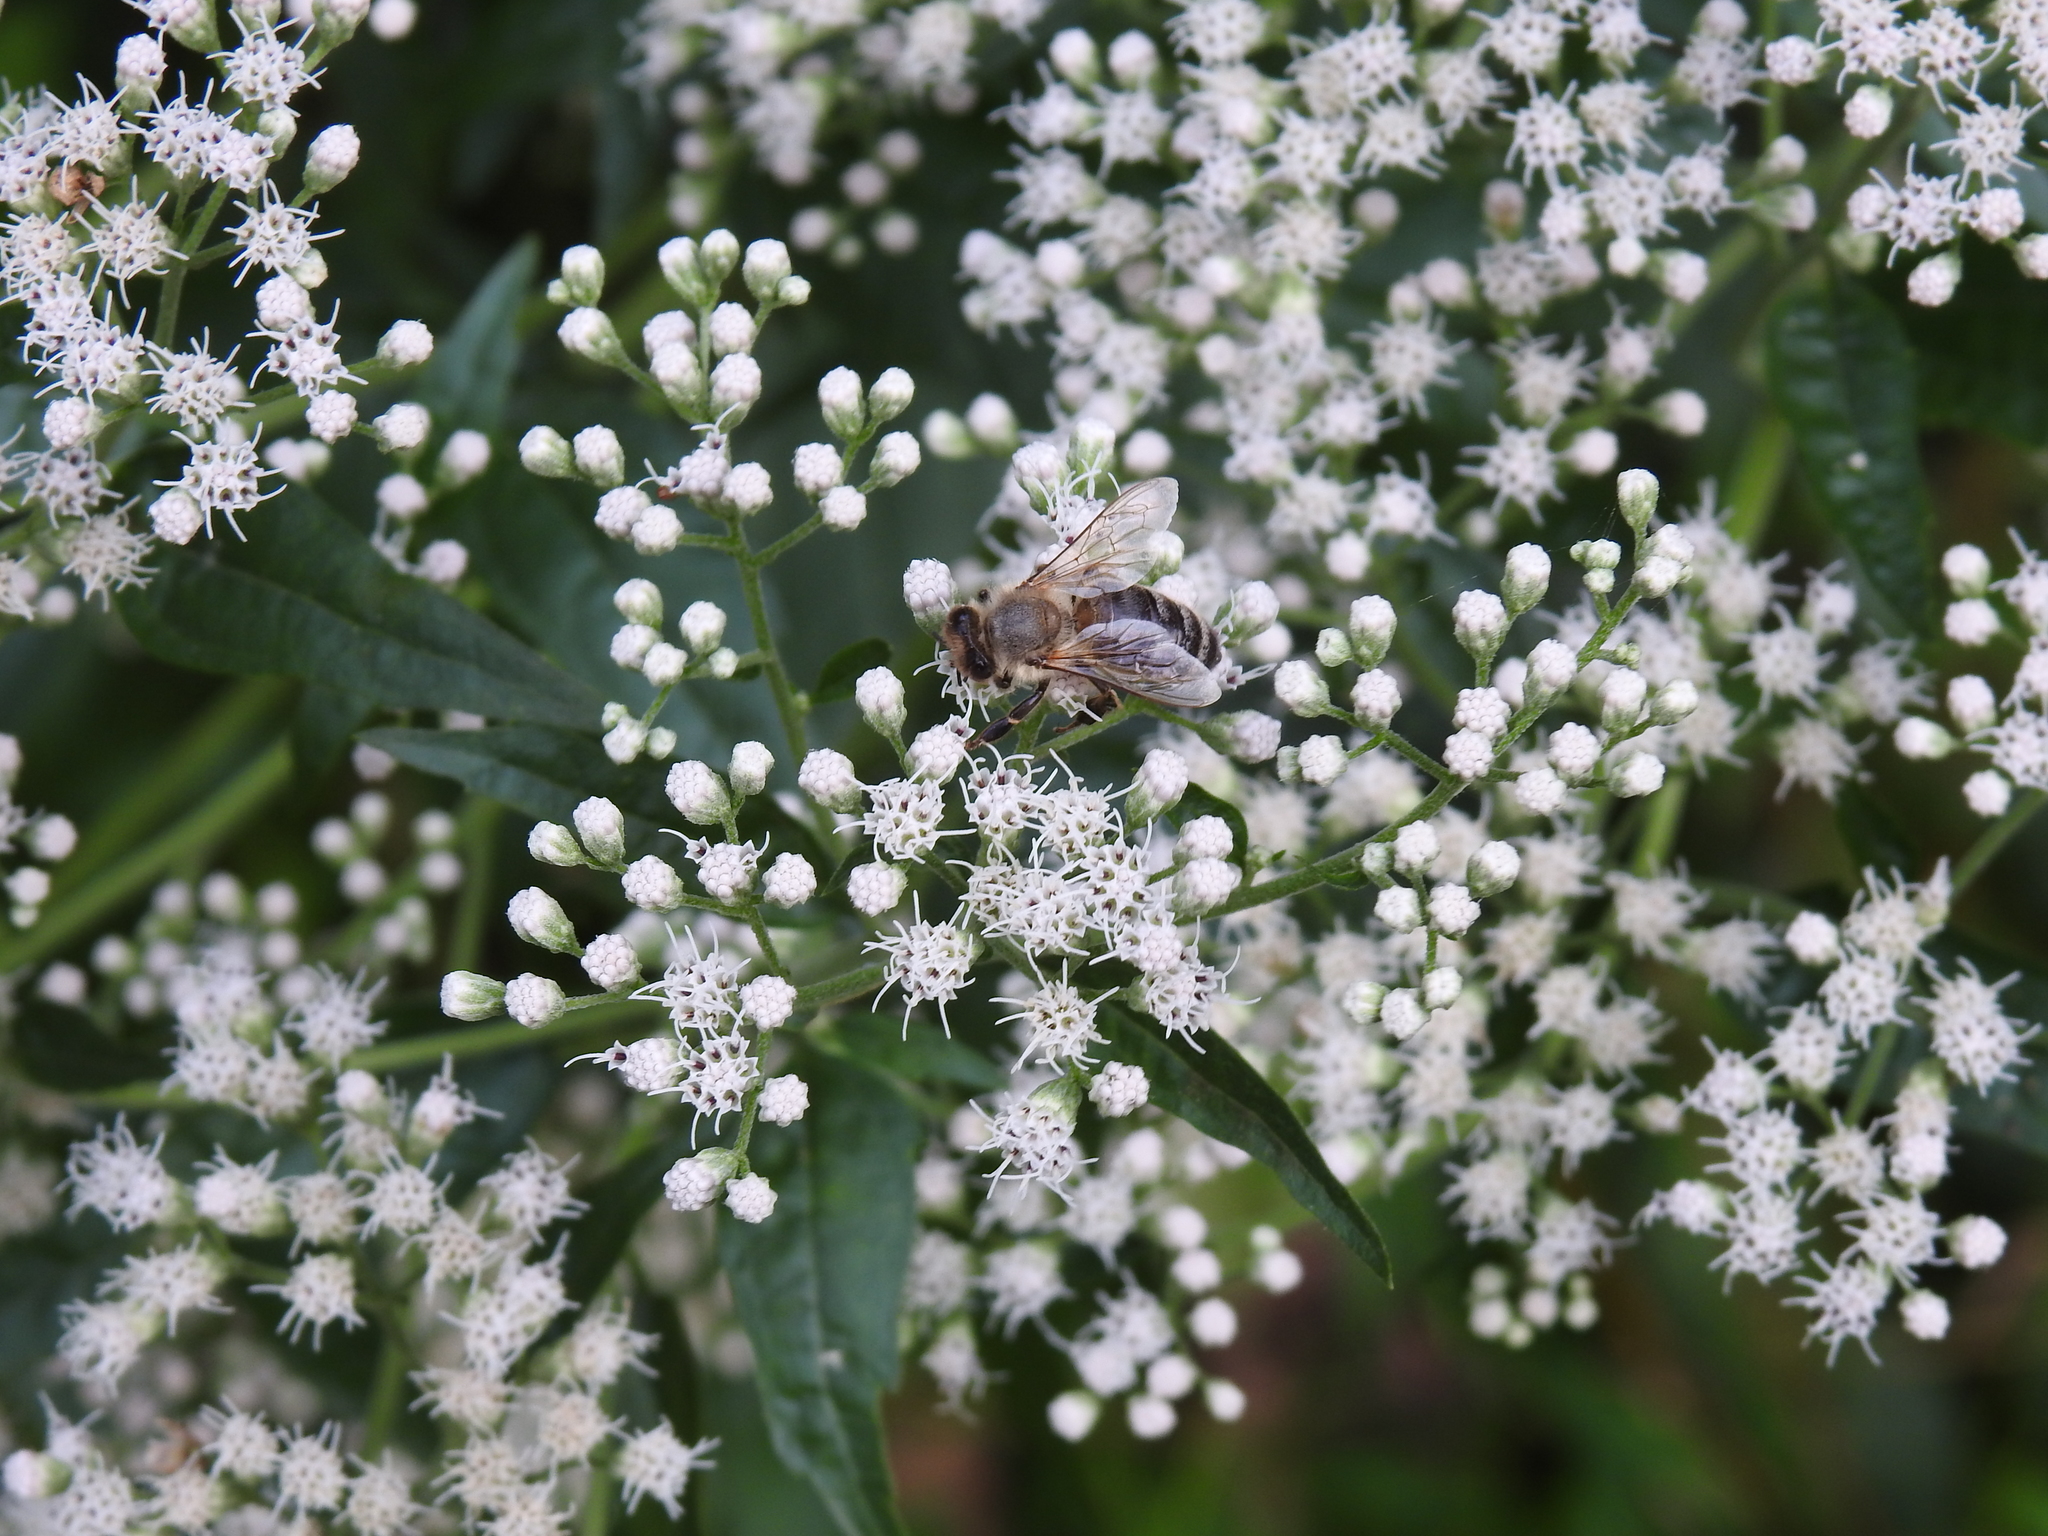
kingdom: Animalia
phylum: Arthropoda
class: Insecta
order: Hymenoptera
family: Apidae
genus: Apis
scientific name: Apis mellifera
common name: Honey bee
